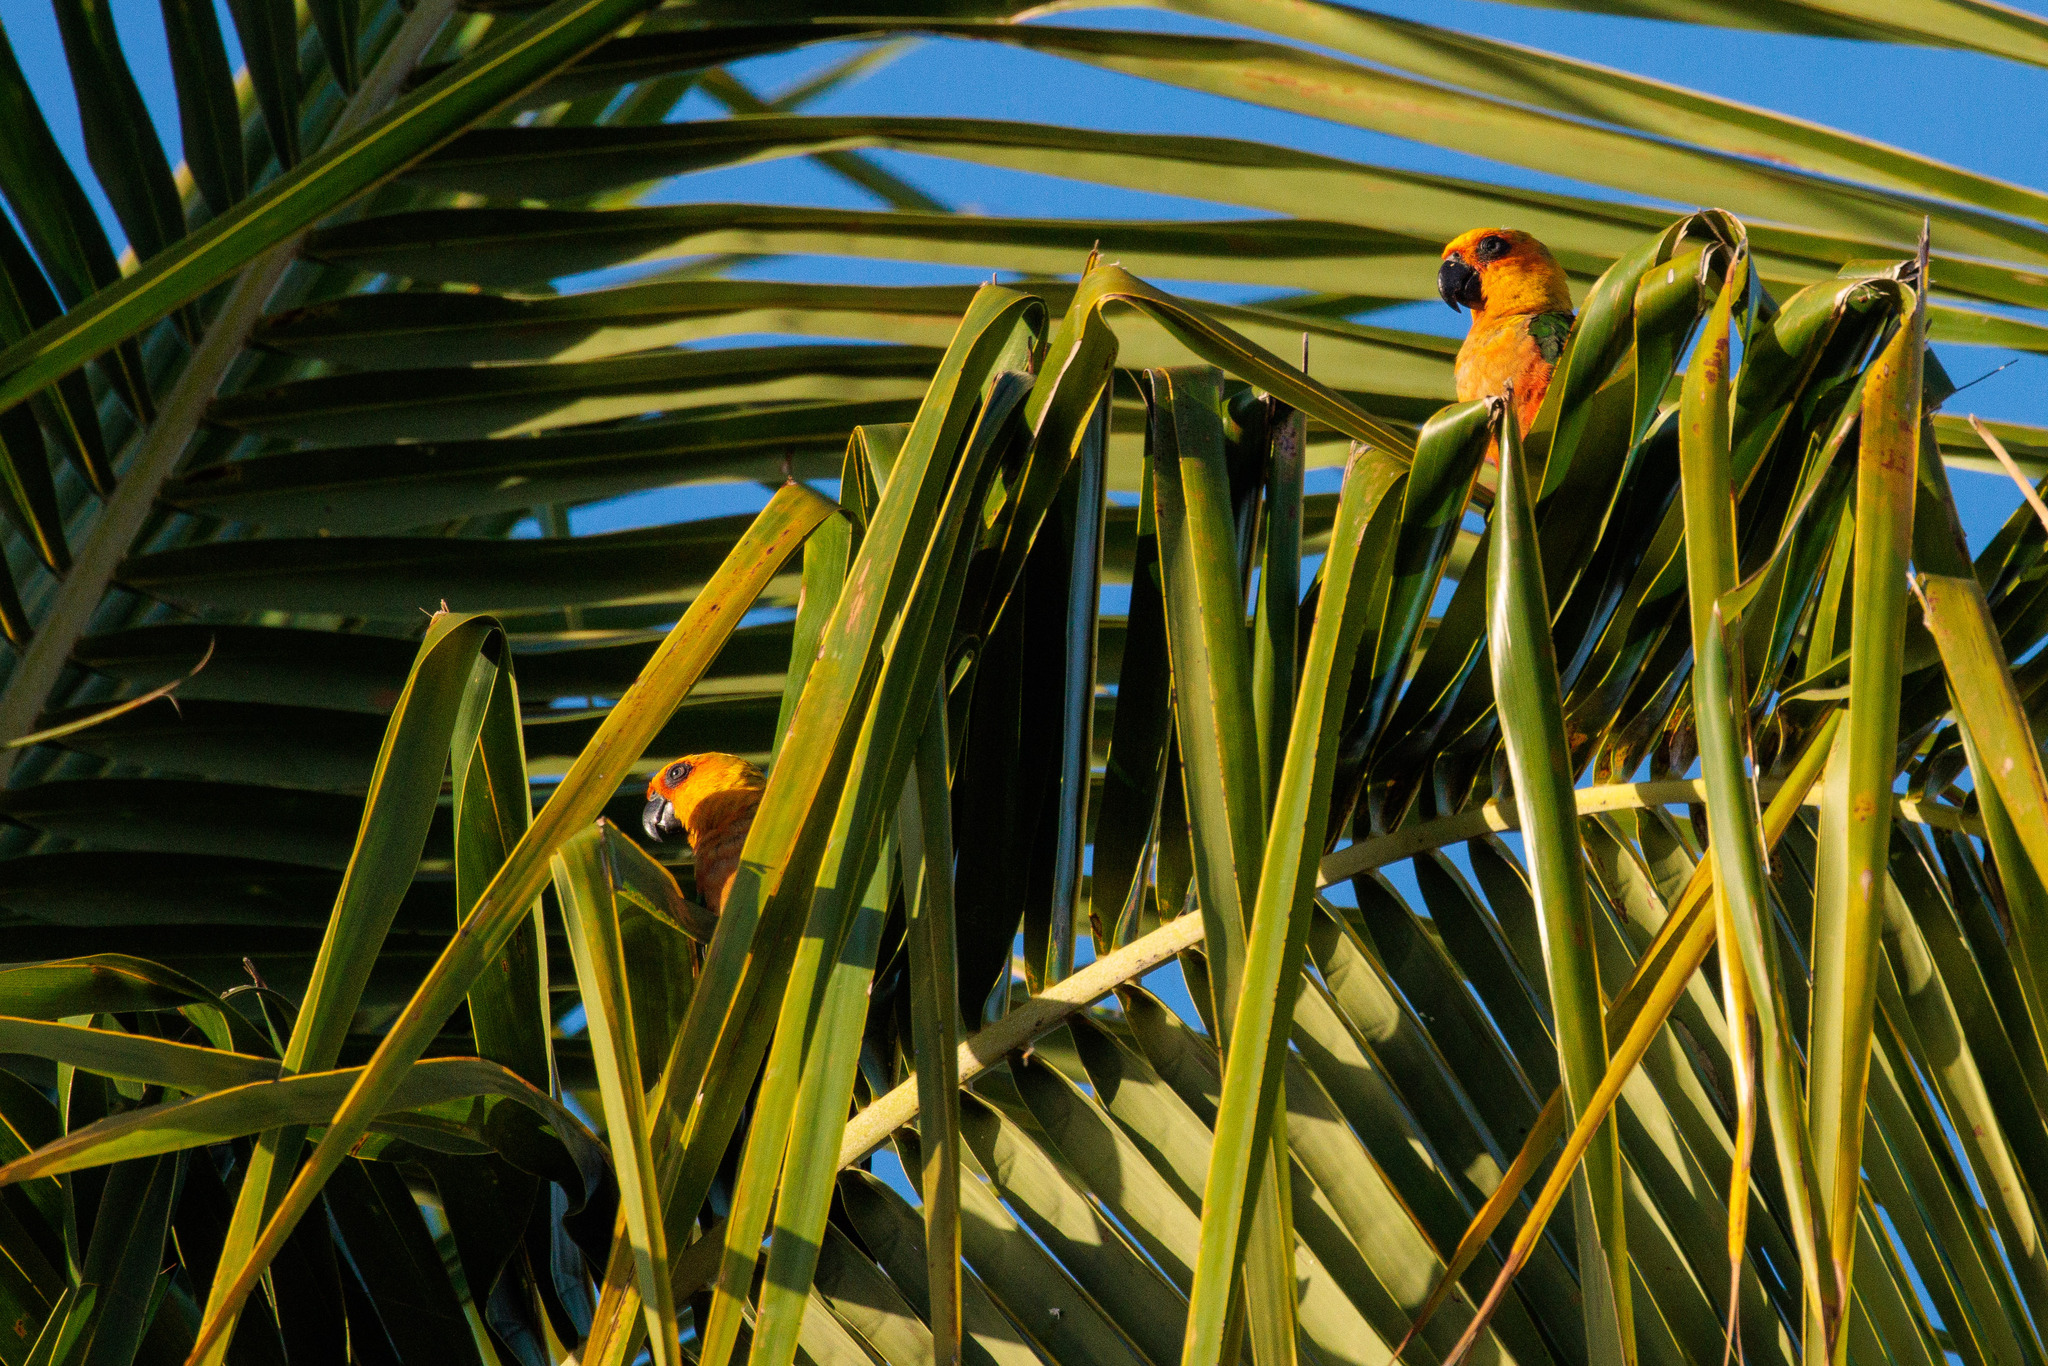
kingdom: Animalia
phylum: Chordata
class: Aves
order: Psittaciformes
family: Psittacidae
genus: Aratinga
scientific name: Aratinga jandaya
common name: Jandaya parakeet
